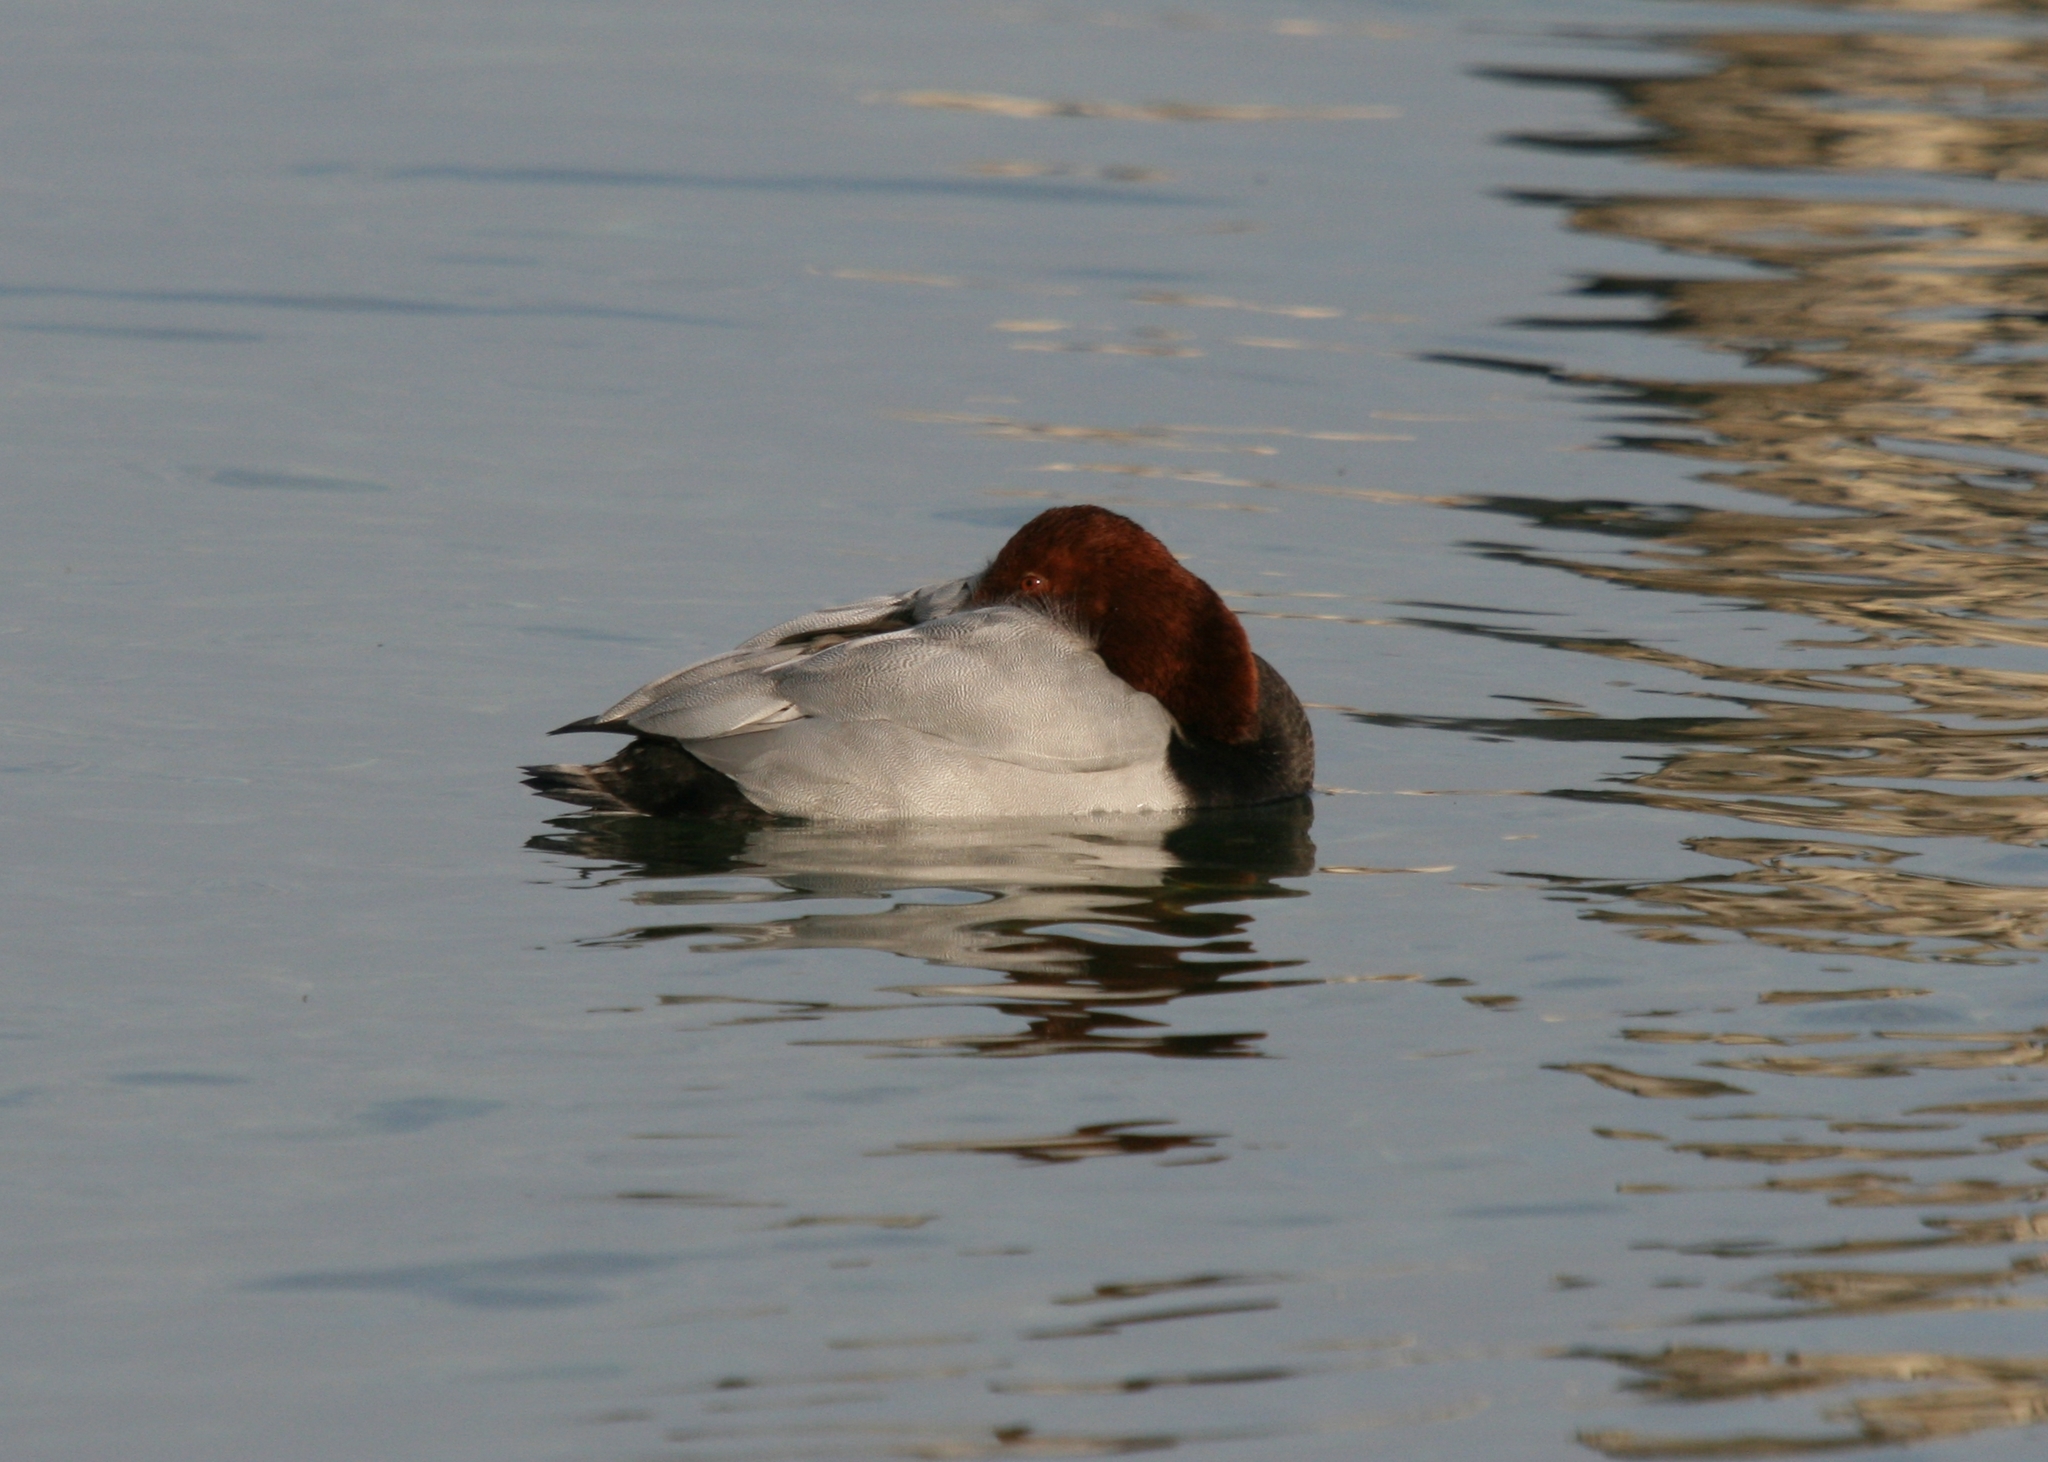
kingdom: Animalia
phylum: Chordata
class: Aves
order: Anseriformes
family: Anatidae
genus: Aythya
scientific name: Aythya ferina
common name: Common pochard
